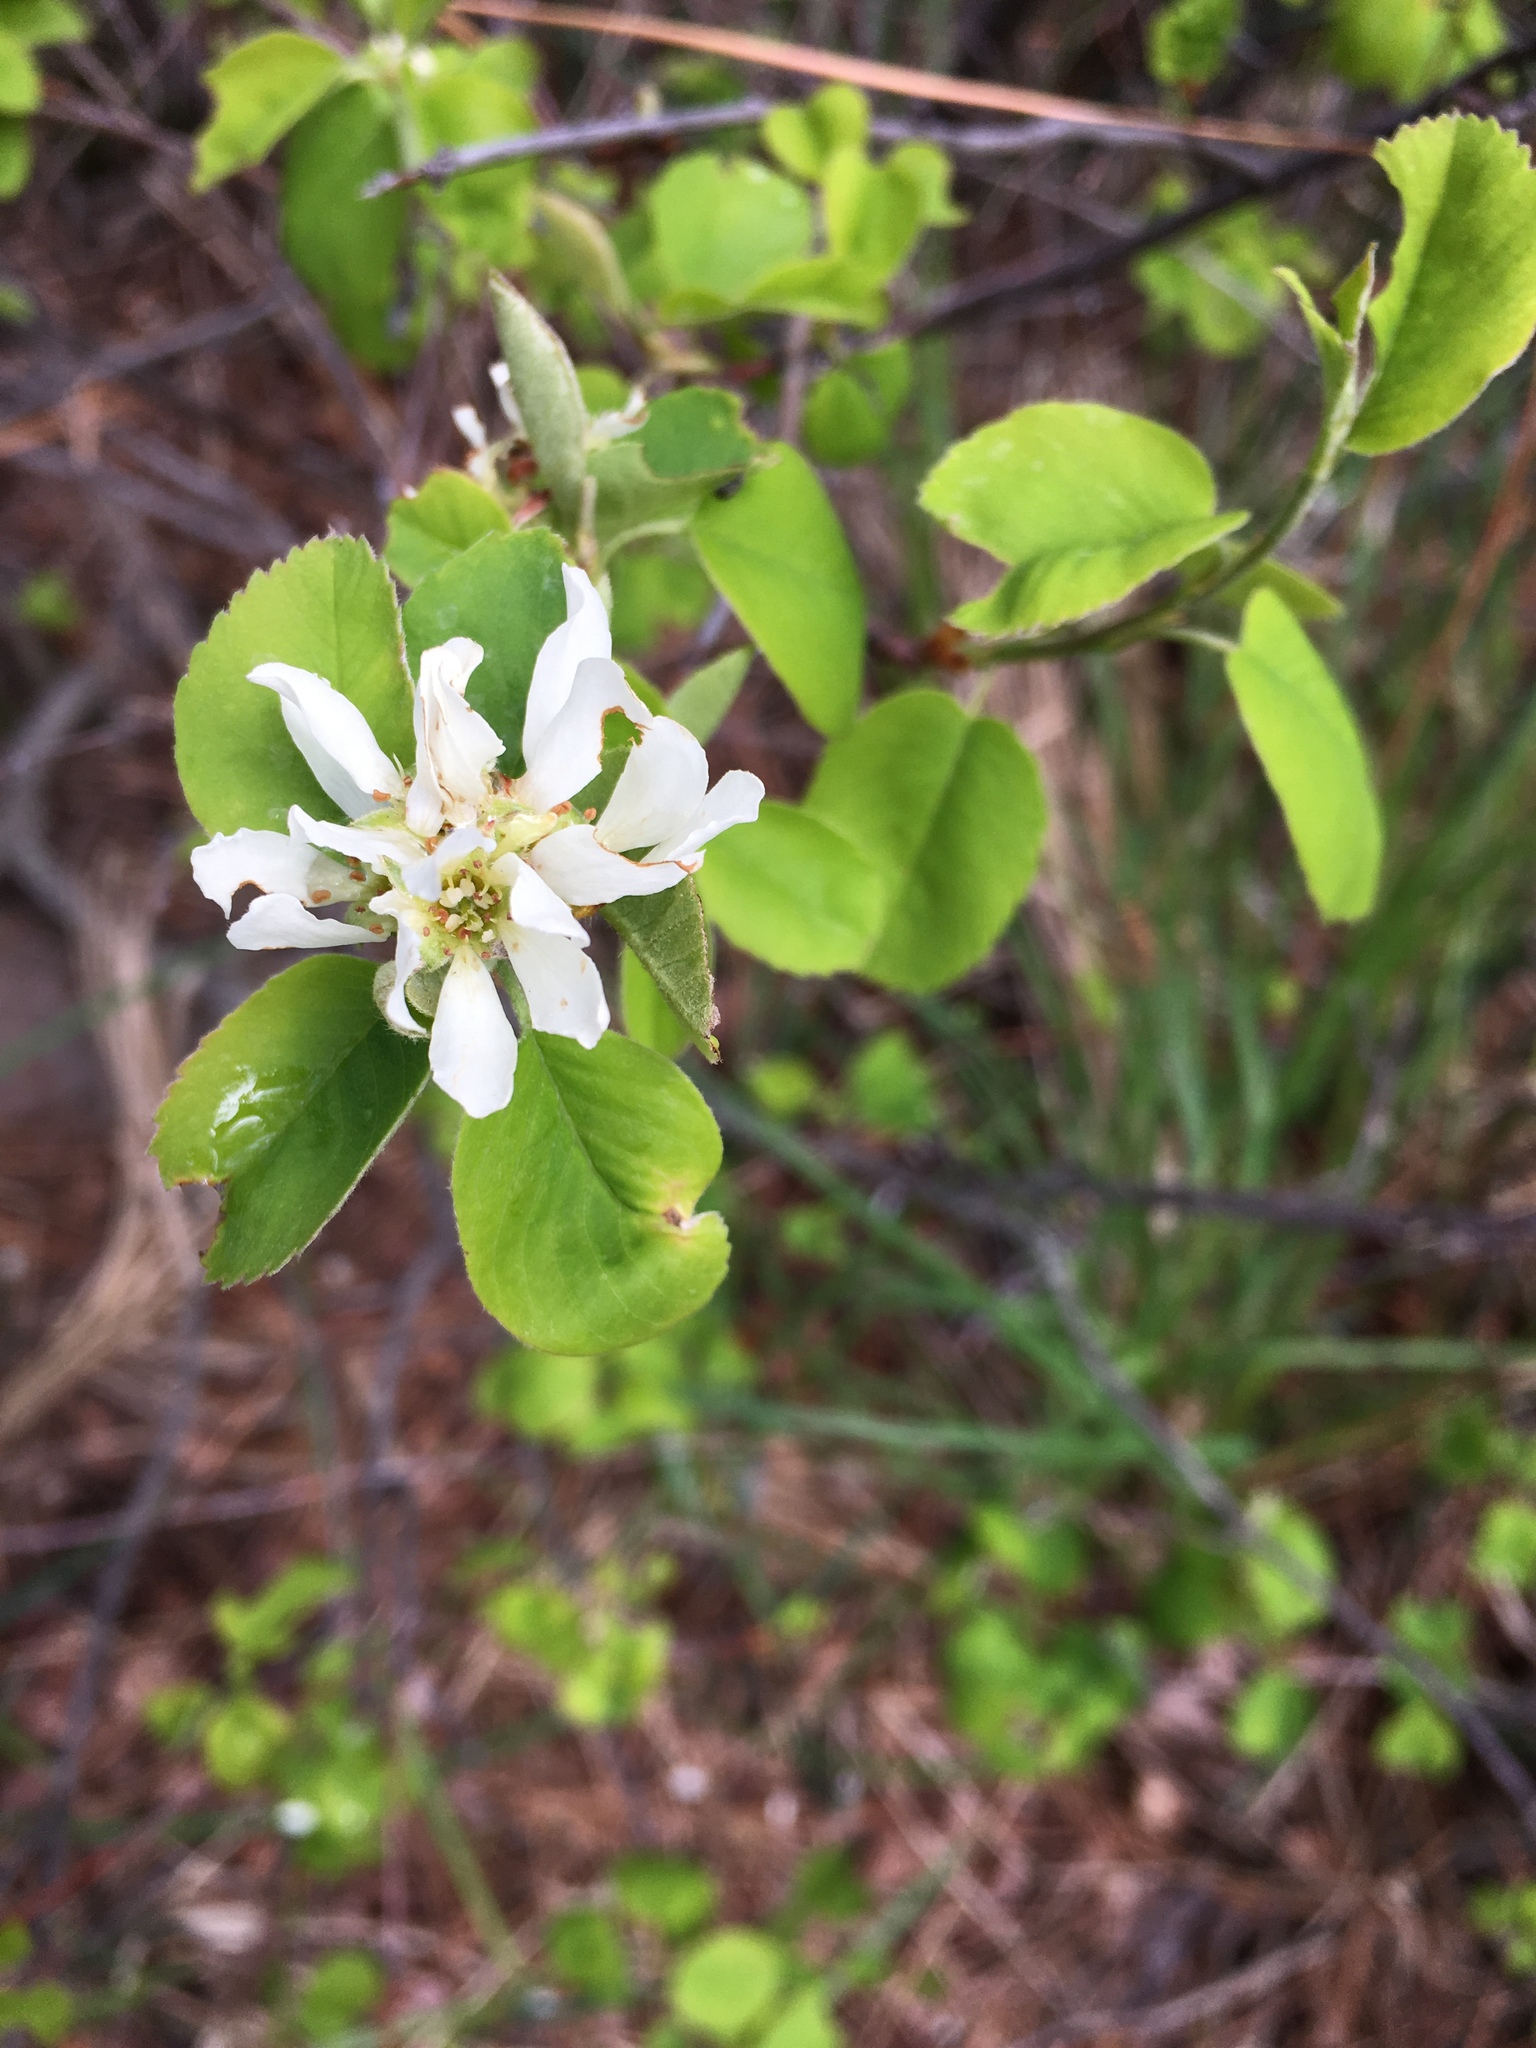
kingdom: Plantae
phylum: Tracheophyta
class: Magnoliopsida
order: Rosales
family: Rosaceae
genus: Amelanchier
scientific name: Amelanchier alnifolia
